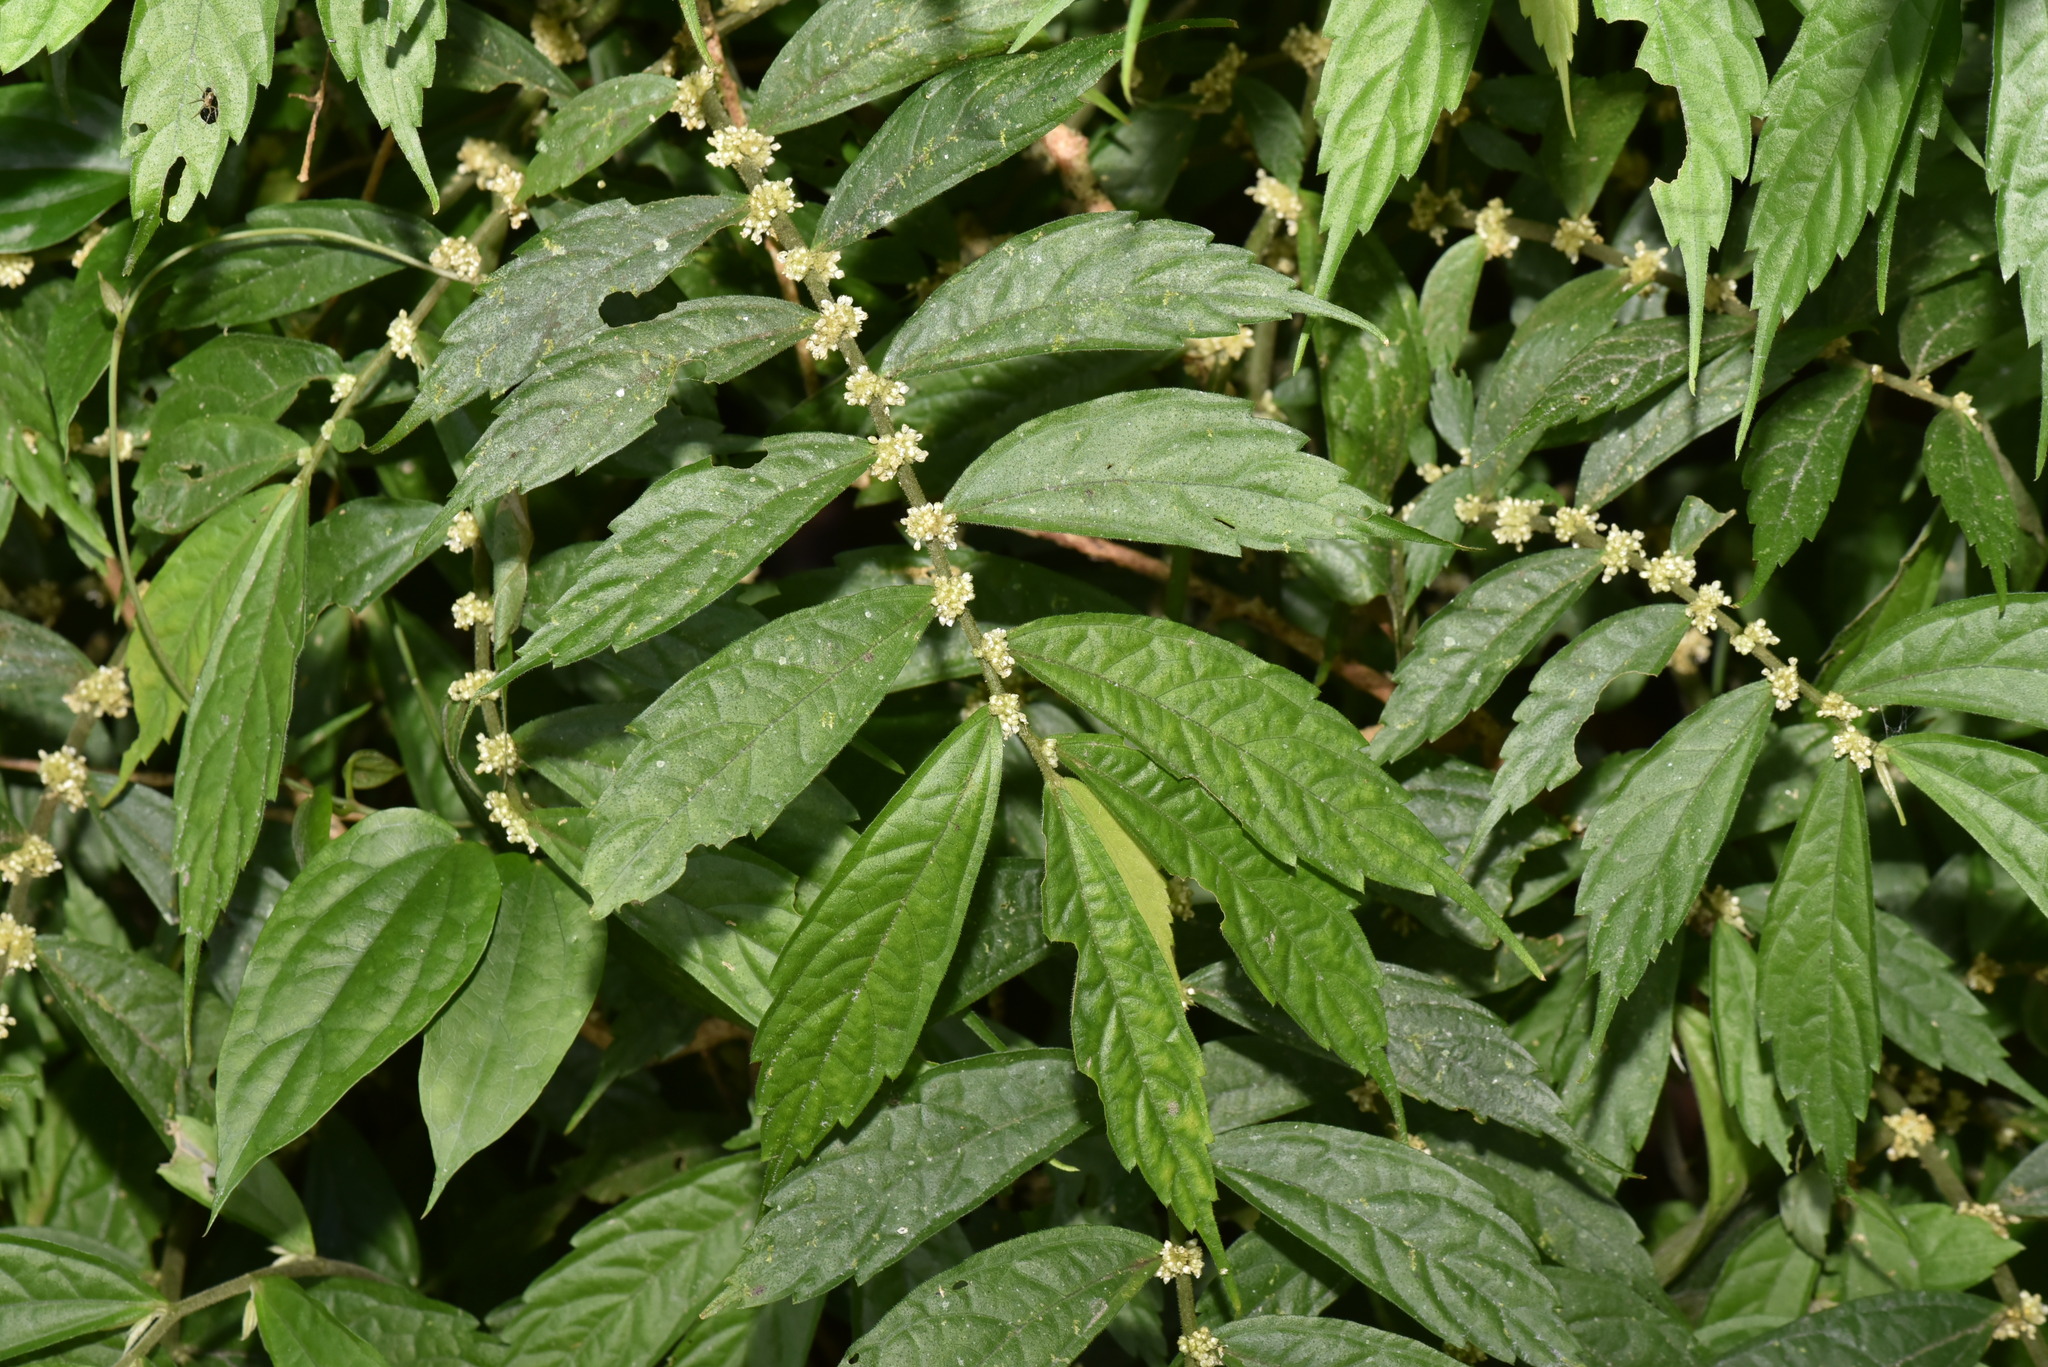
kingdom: Plantae
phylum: Tracheophyta
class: Magnoliopsida
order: Rosales
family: Urticaceae
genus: Elatostema
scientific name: Elatostema lineolatum
